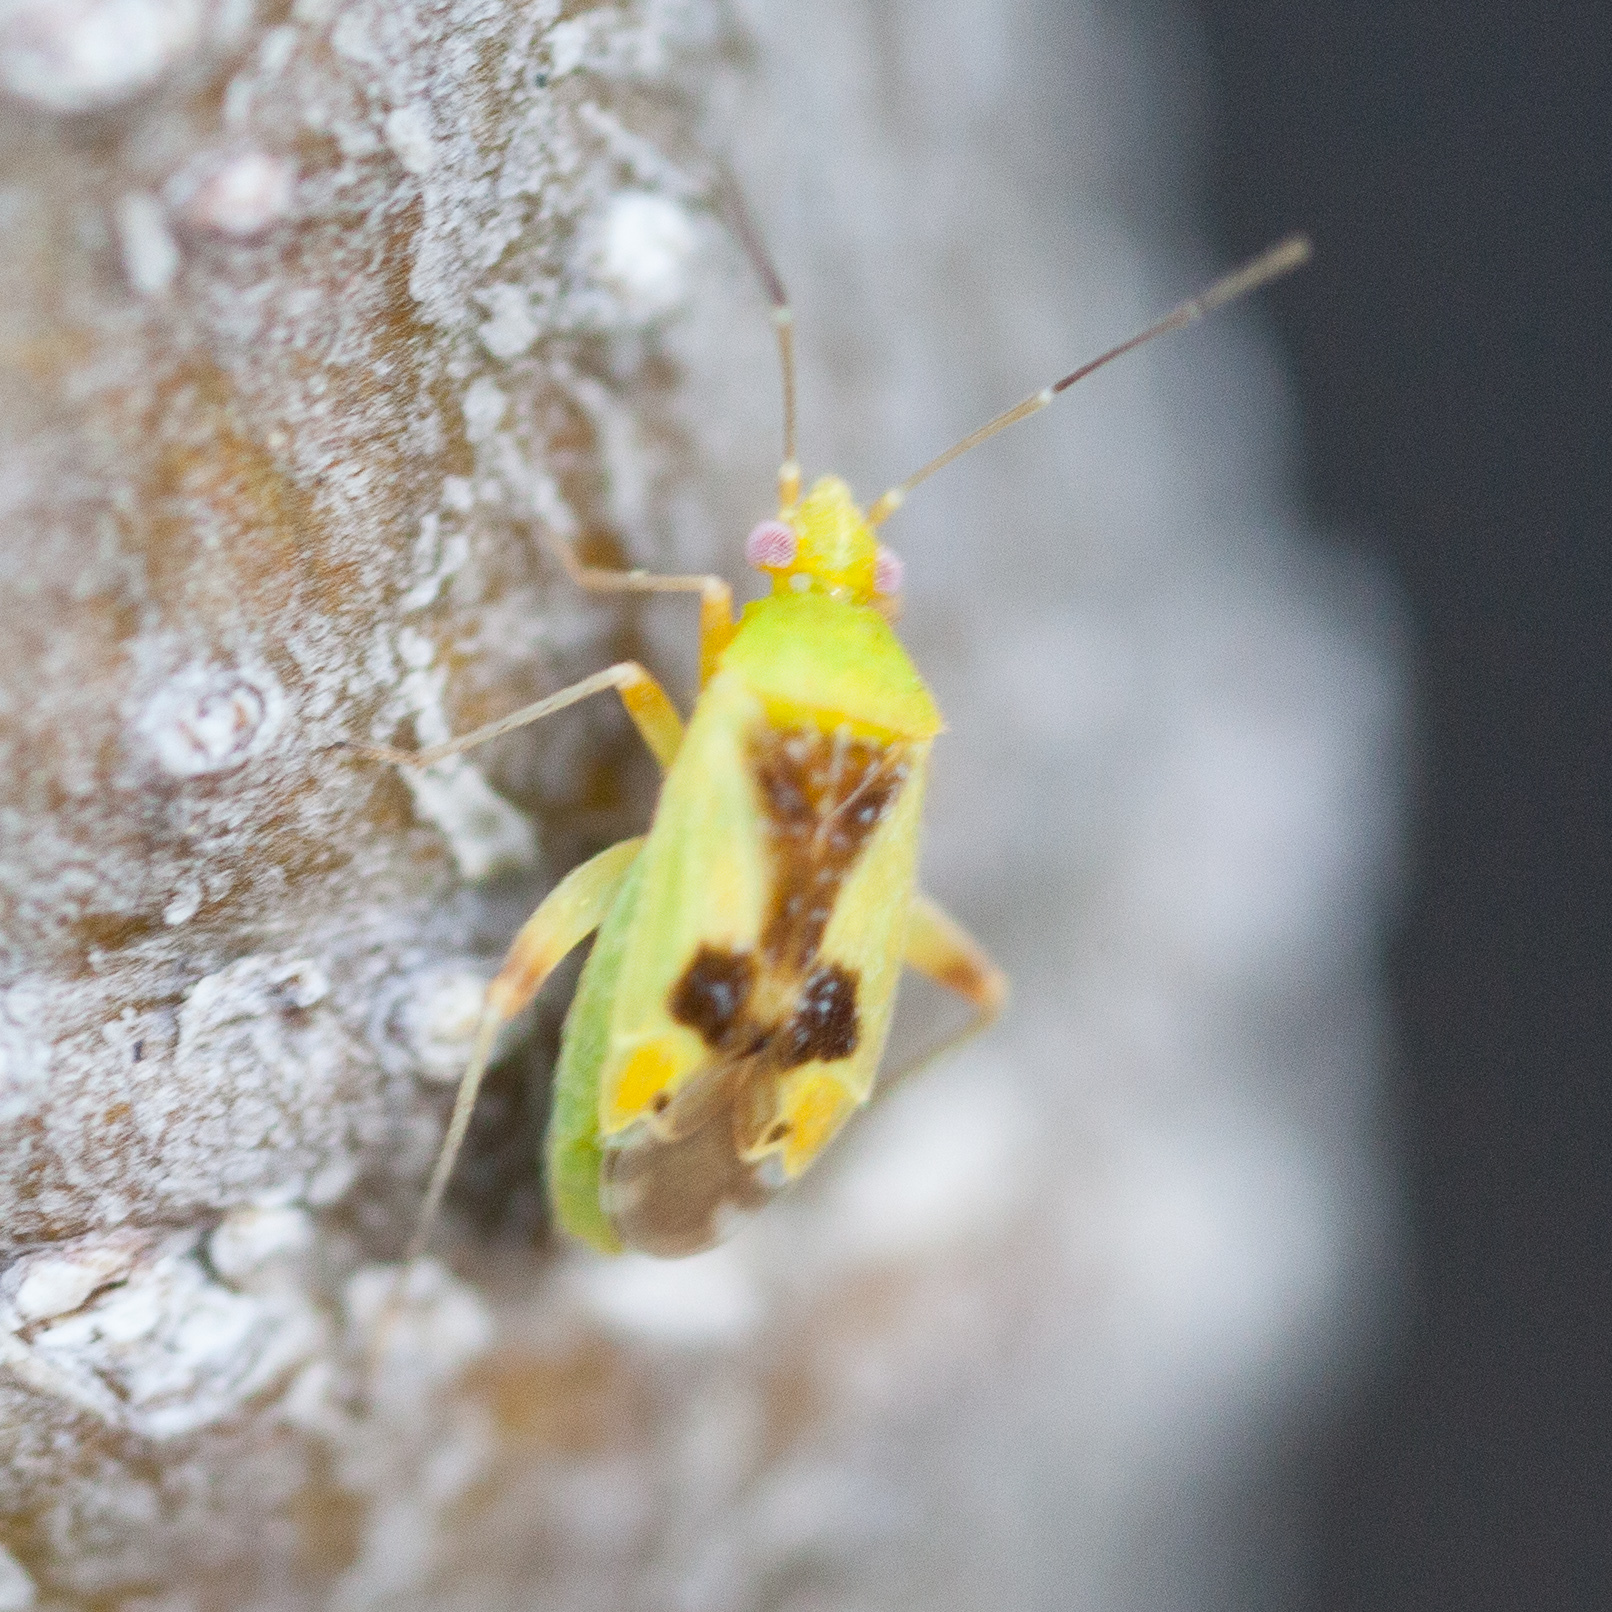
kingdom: Animalia
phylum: Arthropoda
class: Insecta
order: Hemiptera
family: Miridae
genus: Reuteroscopus
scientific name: Reuteroscopus femoralis
